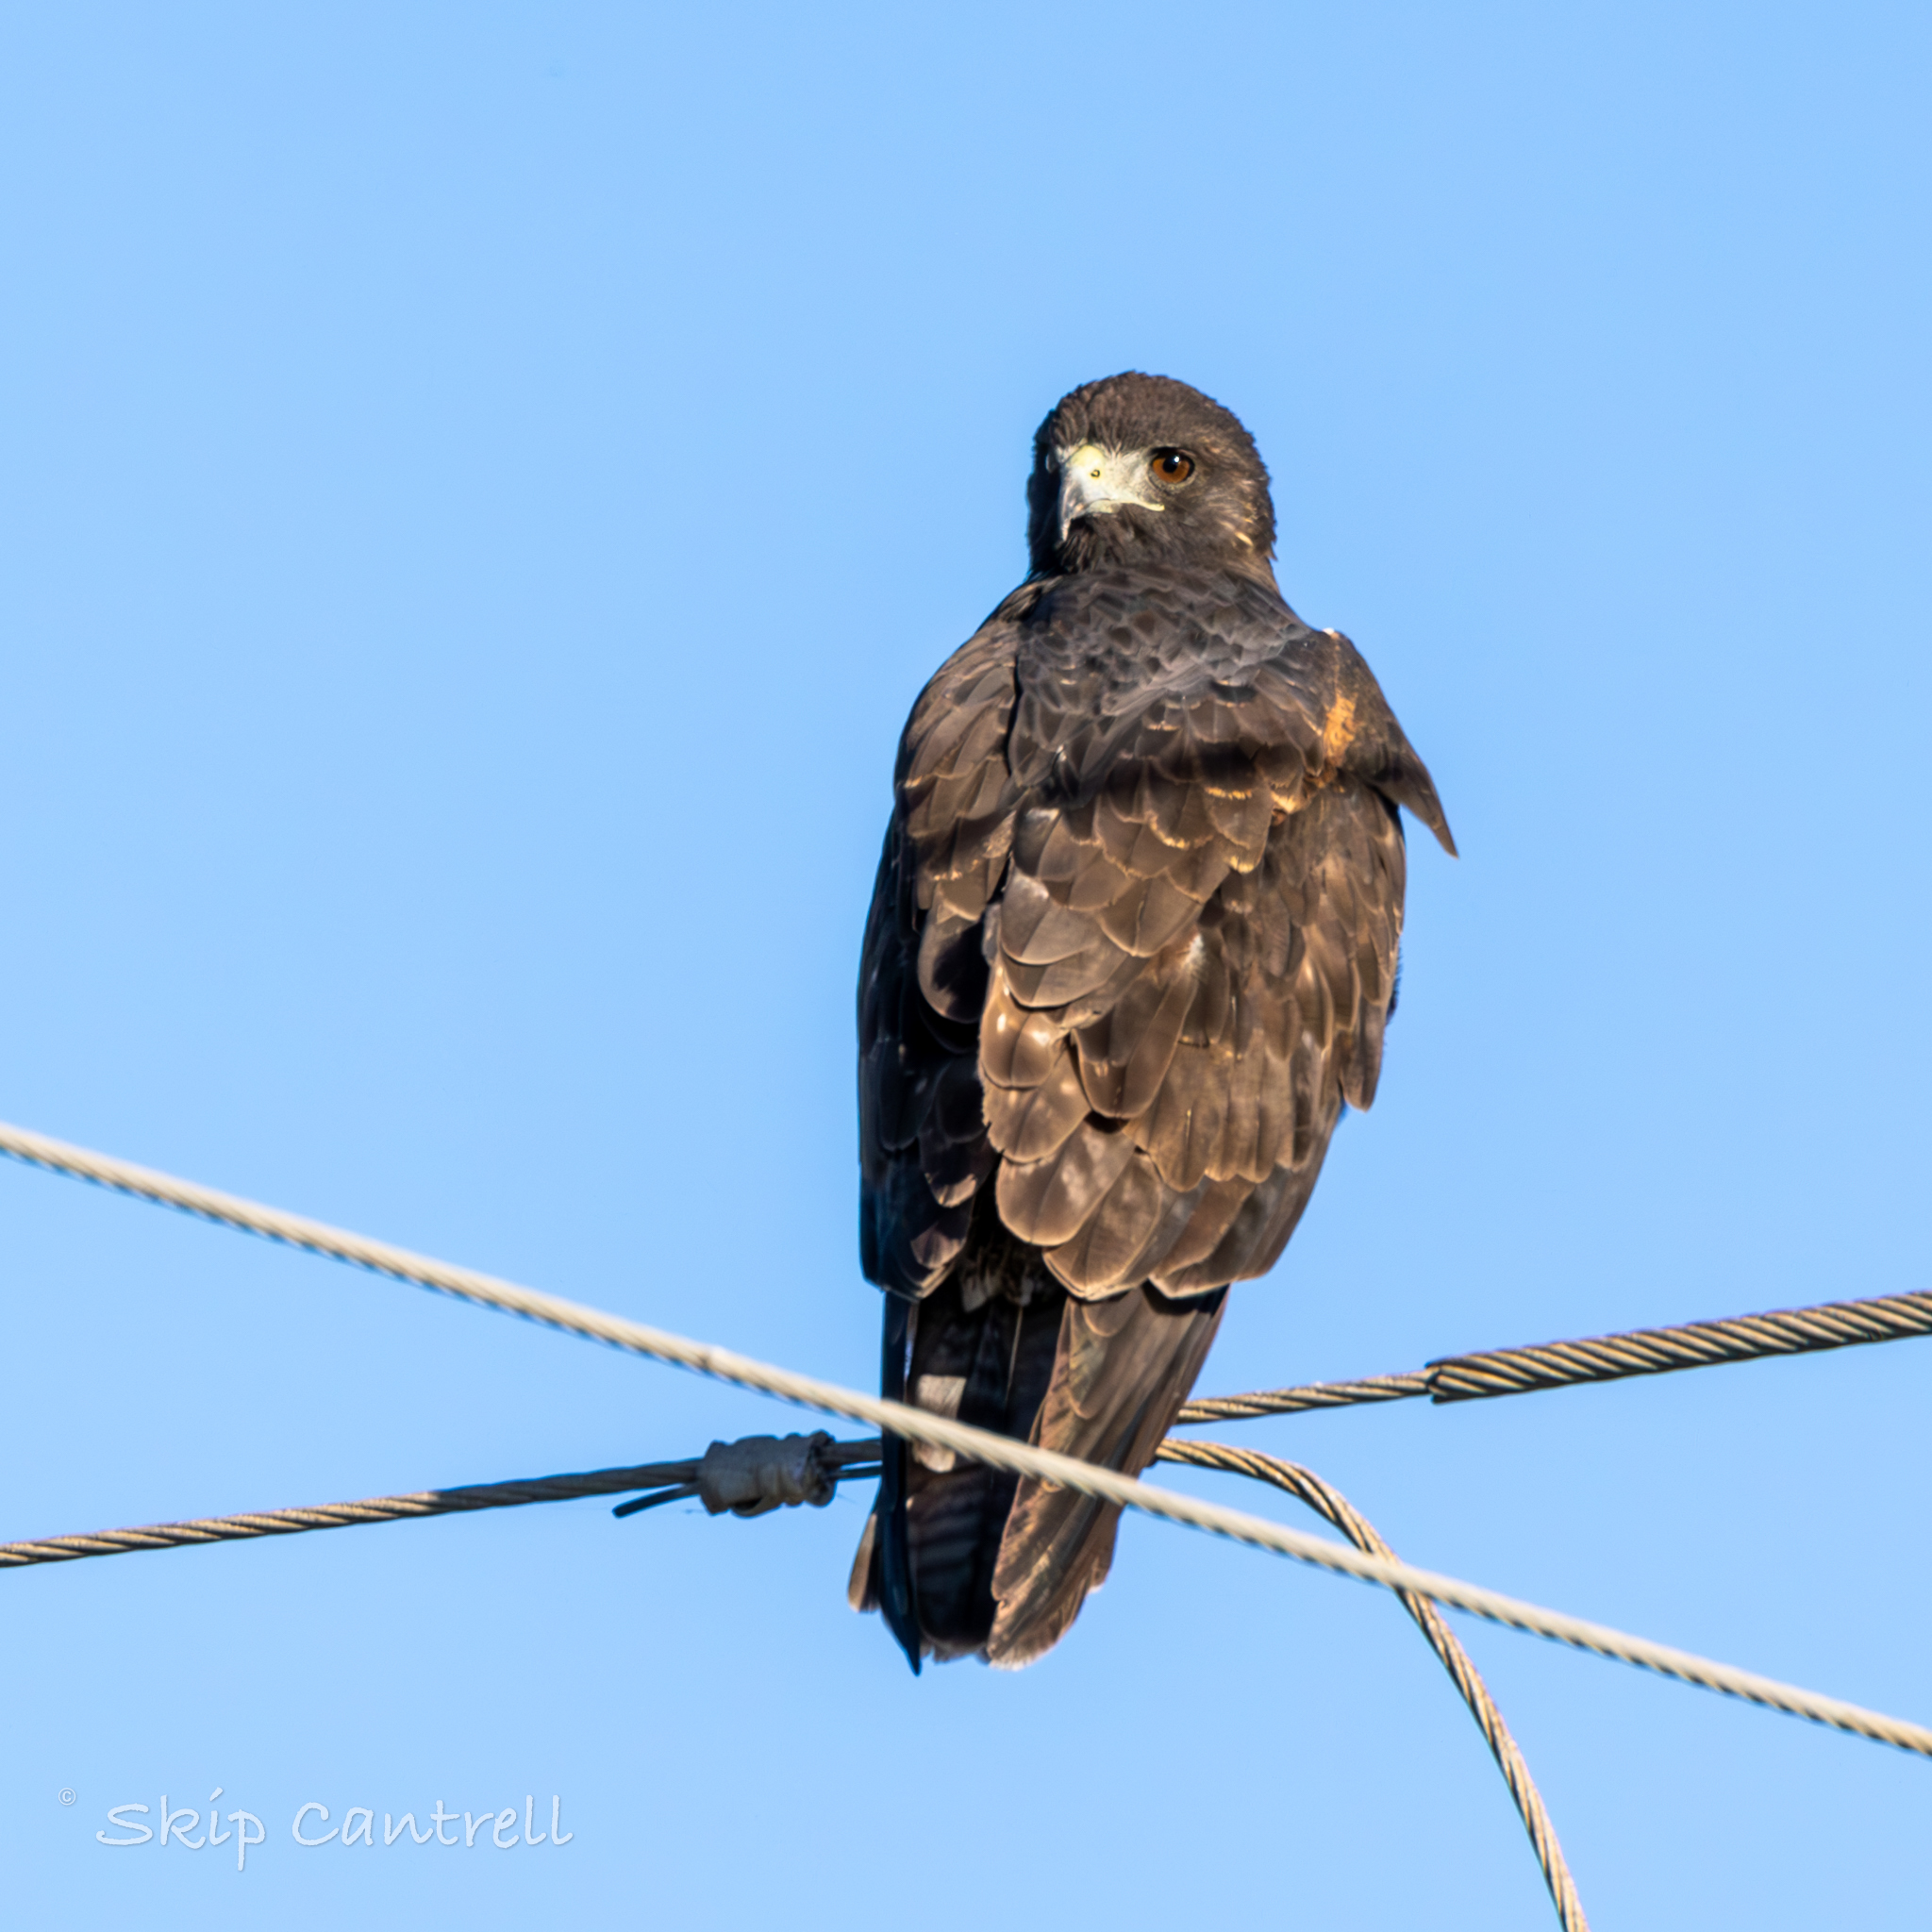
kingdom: Animalia
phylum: Chordata
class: Aves
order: Accipitriformes
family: Accipitridae
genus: Buteo
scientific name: Buteo albicaudatus
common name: White-tailed hawk
